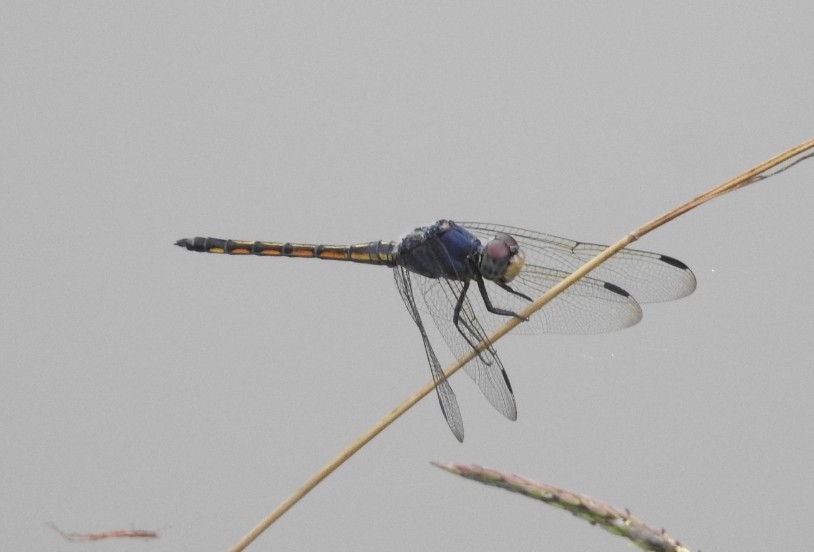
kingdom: Animalia
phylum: Arthropoda
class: Insecta
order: Odonata
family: Libellulidae
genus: Potamarcha
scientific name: Potamarcha congener
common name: Blue chaser
